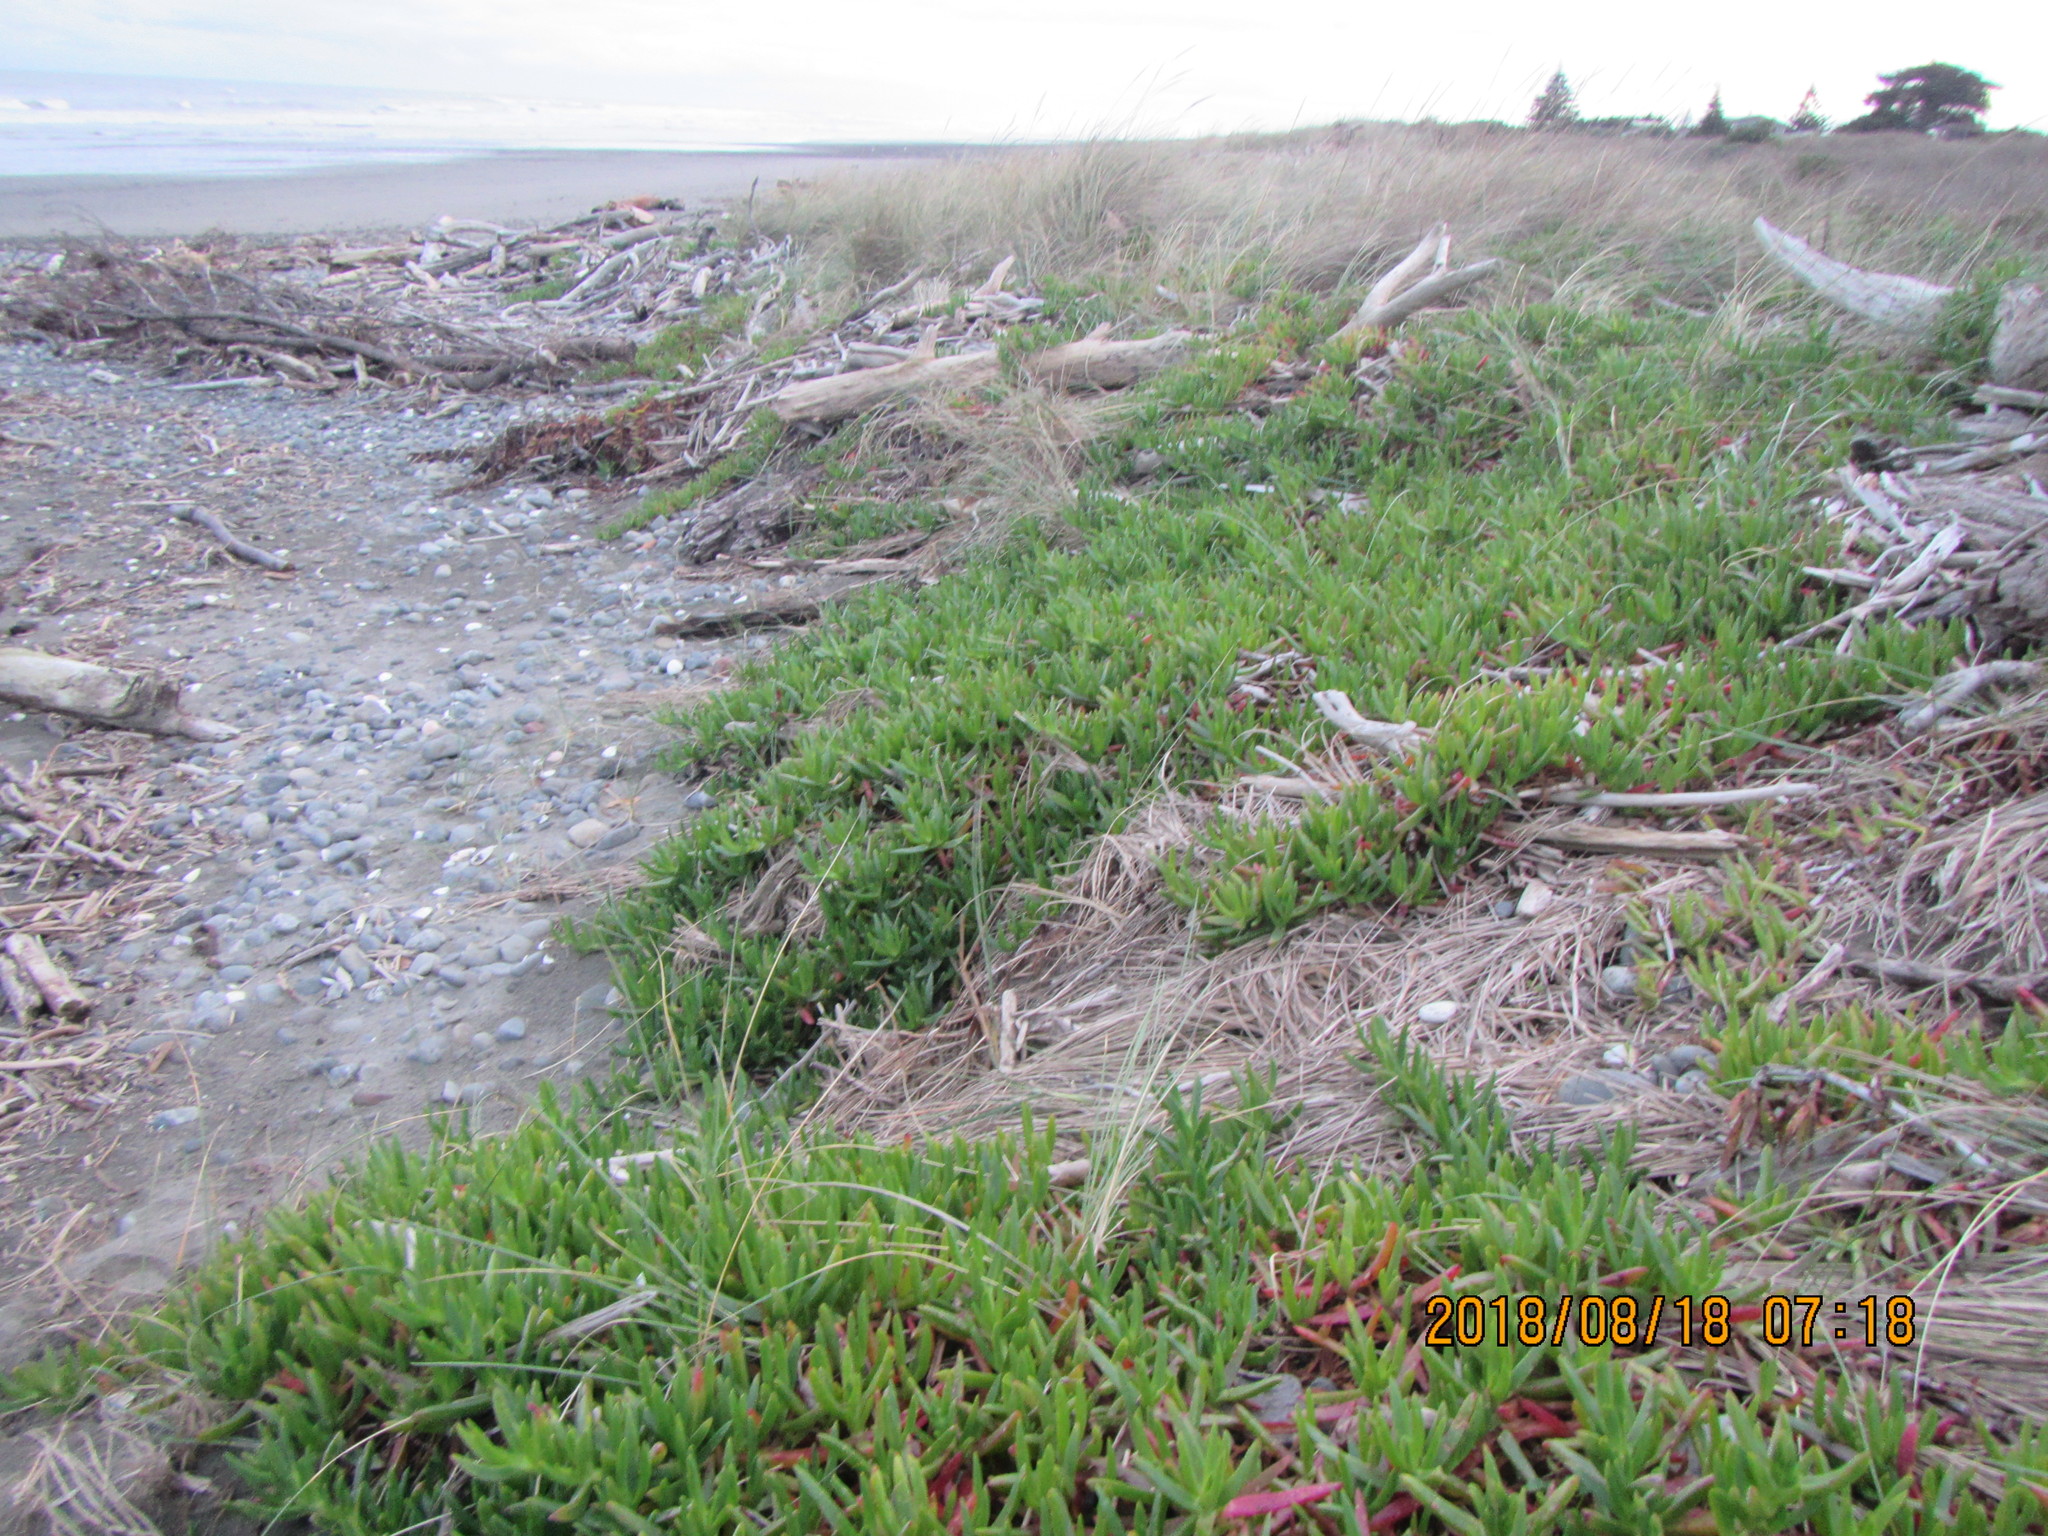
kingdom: Plantae
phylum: Tracheophyta
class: Magnoliopsida
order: Caryophyllales
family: Aizoaceae
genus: Carpobrotus
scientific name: Carpobrotus chilensis
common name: Sea fig
